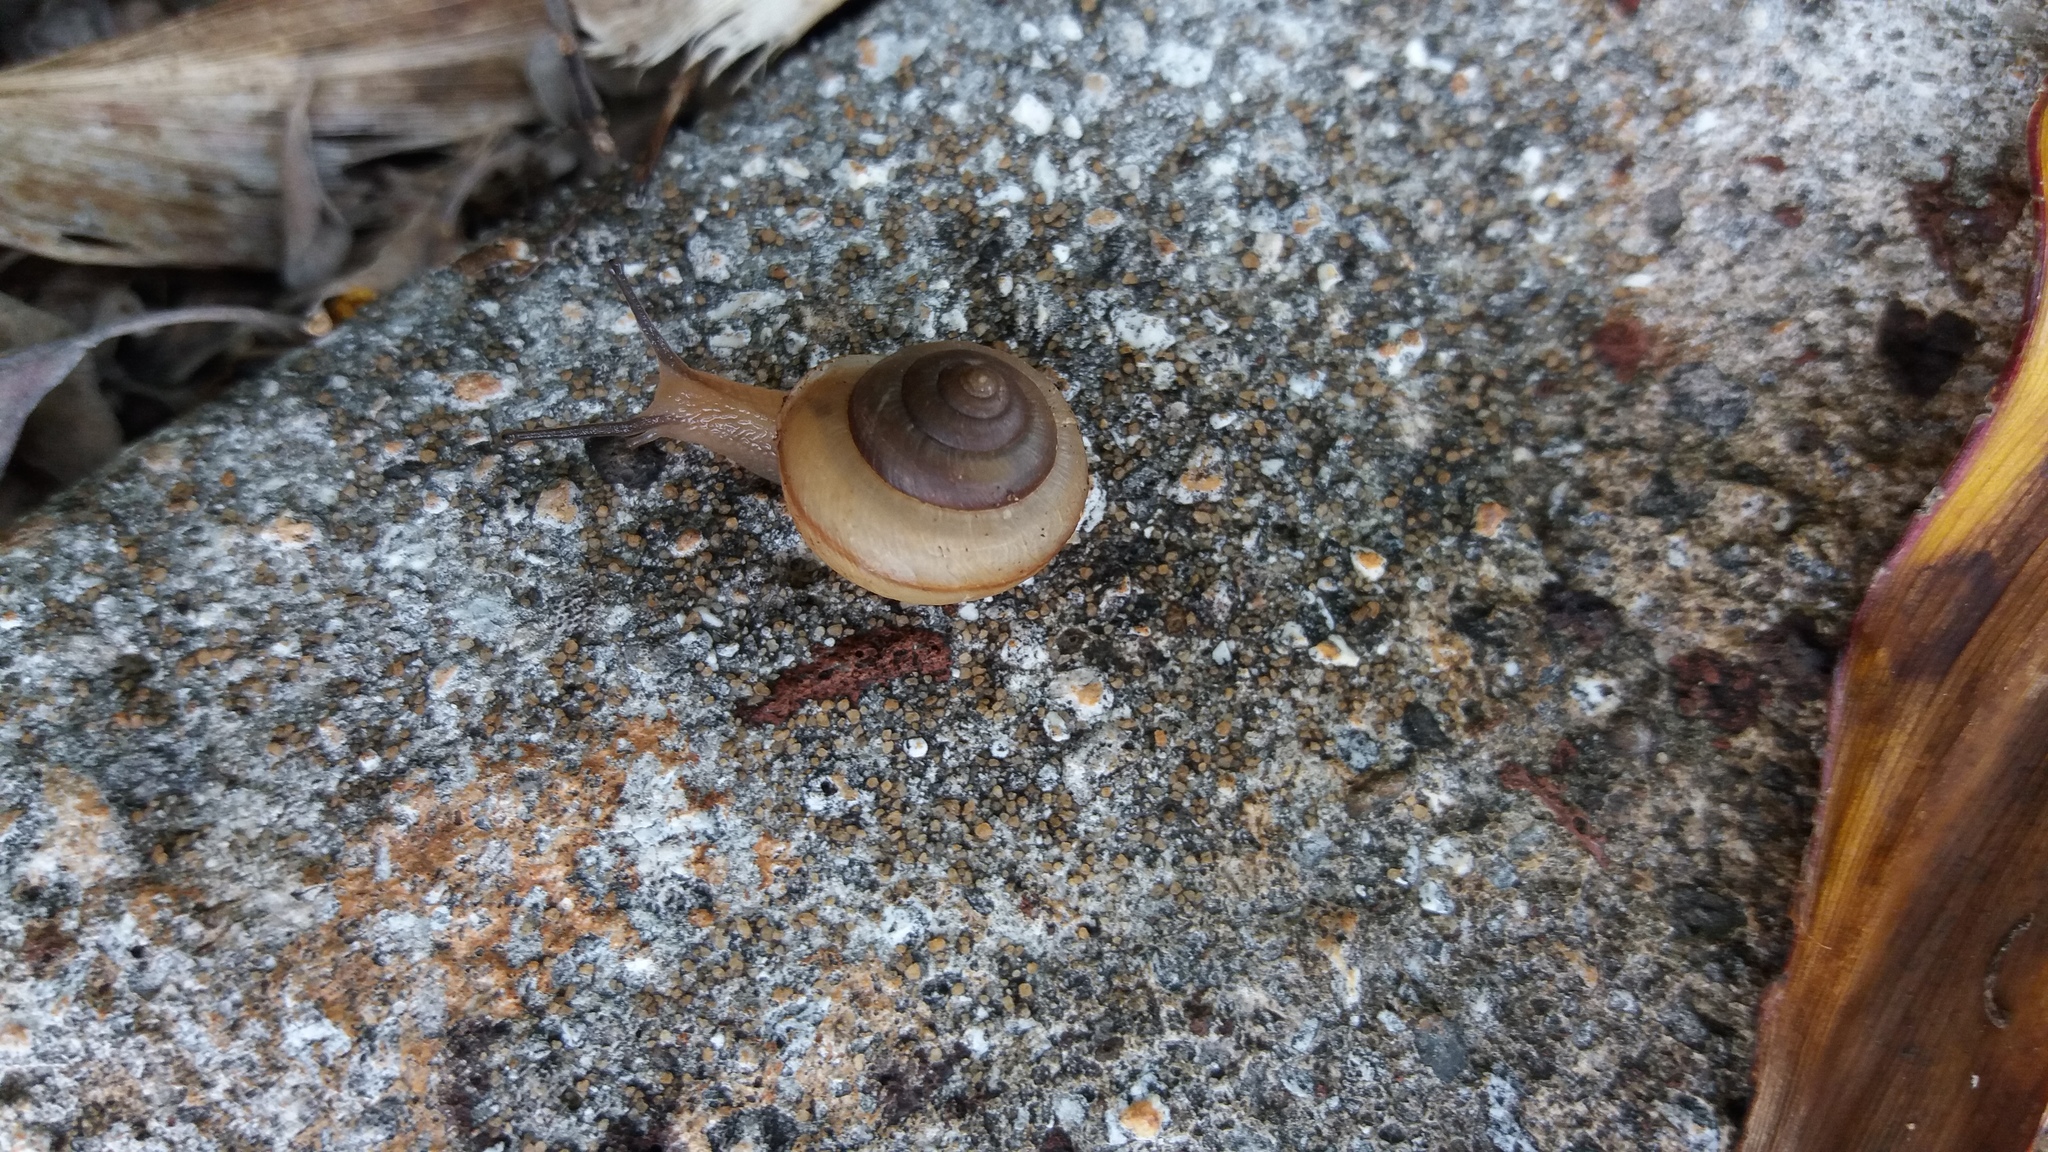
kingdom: Animalia
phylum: Mollusca
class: Gastropoda
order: Stylommatophora
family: Camaenidae
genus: Bradybaena
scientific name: Bradybaena similaris
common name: Asian trampsnail
